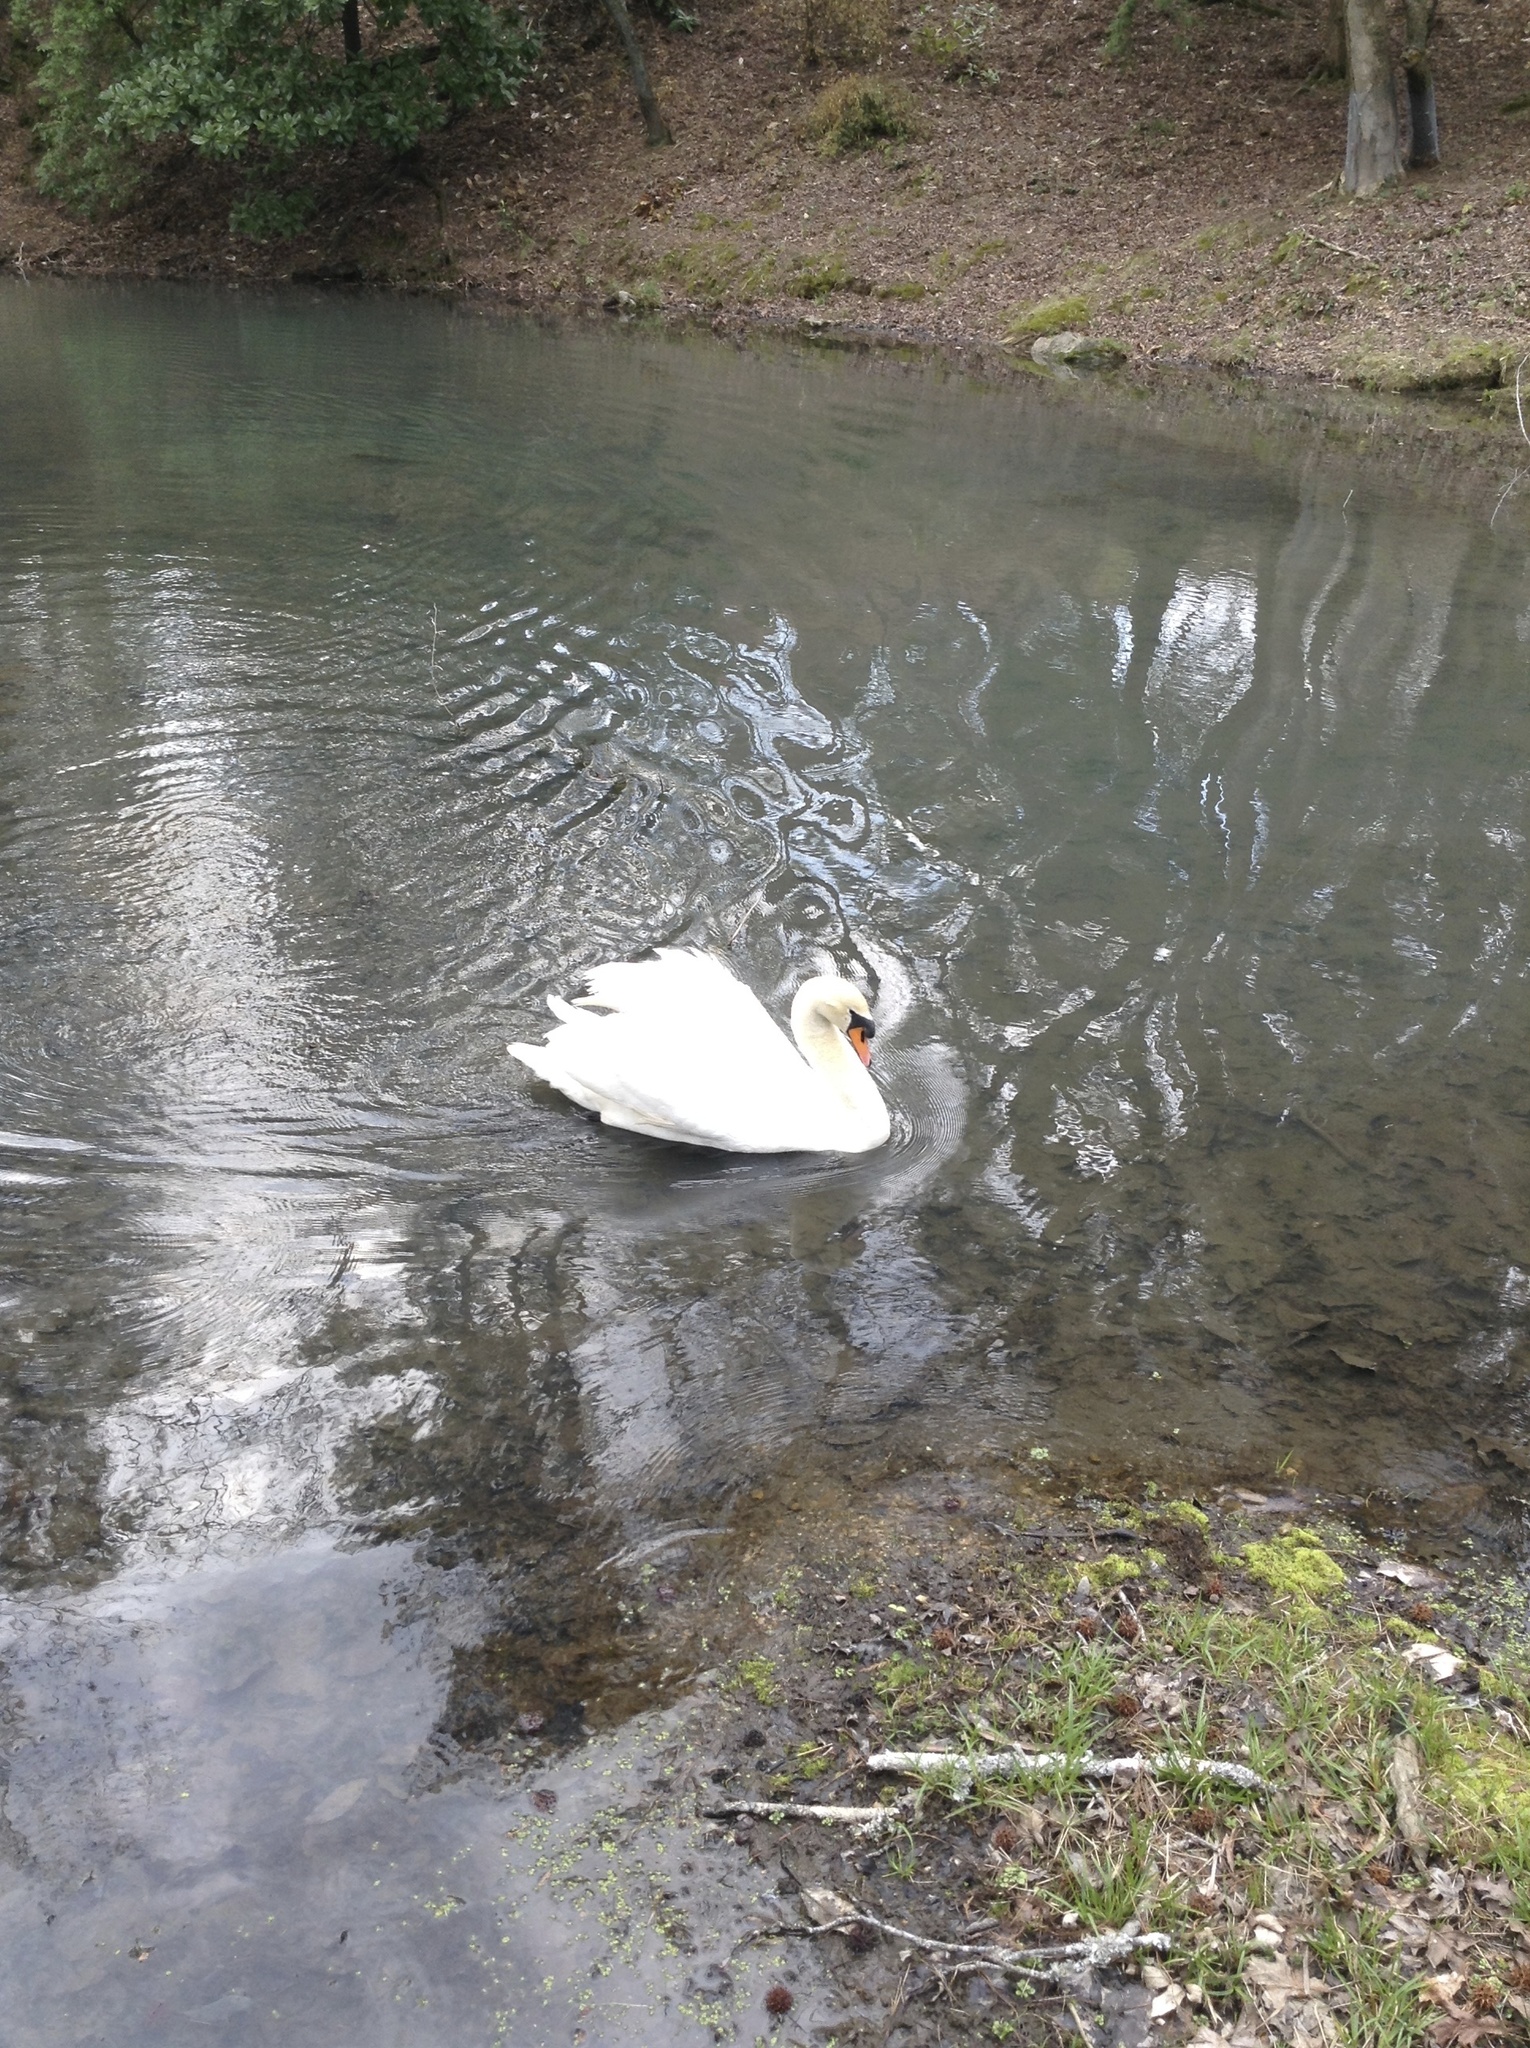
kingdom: Animalia
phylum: Chordata
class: Aves
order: Anseriformes
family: Anatidae
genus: Cygnus
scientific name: Cygnus olor
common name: Mute swan
